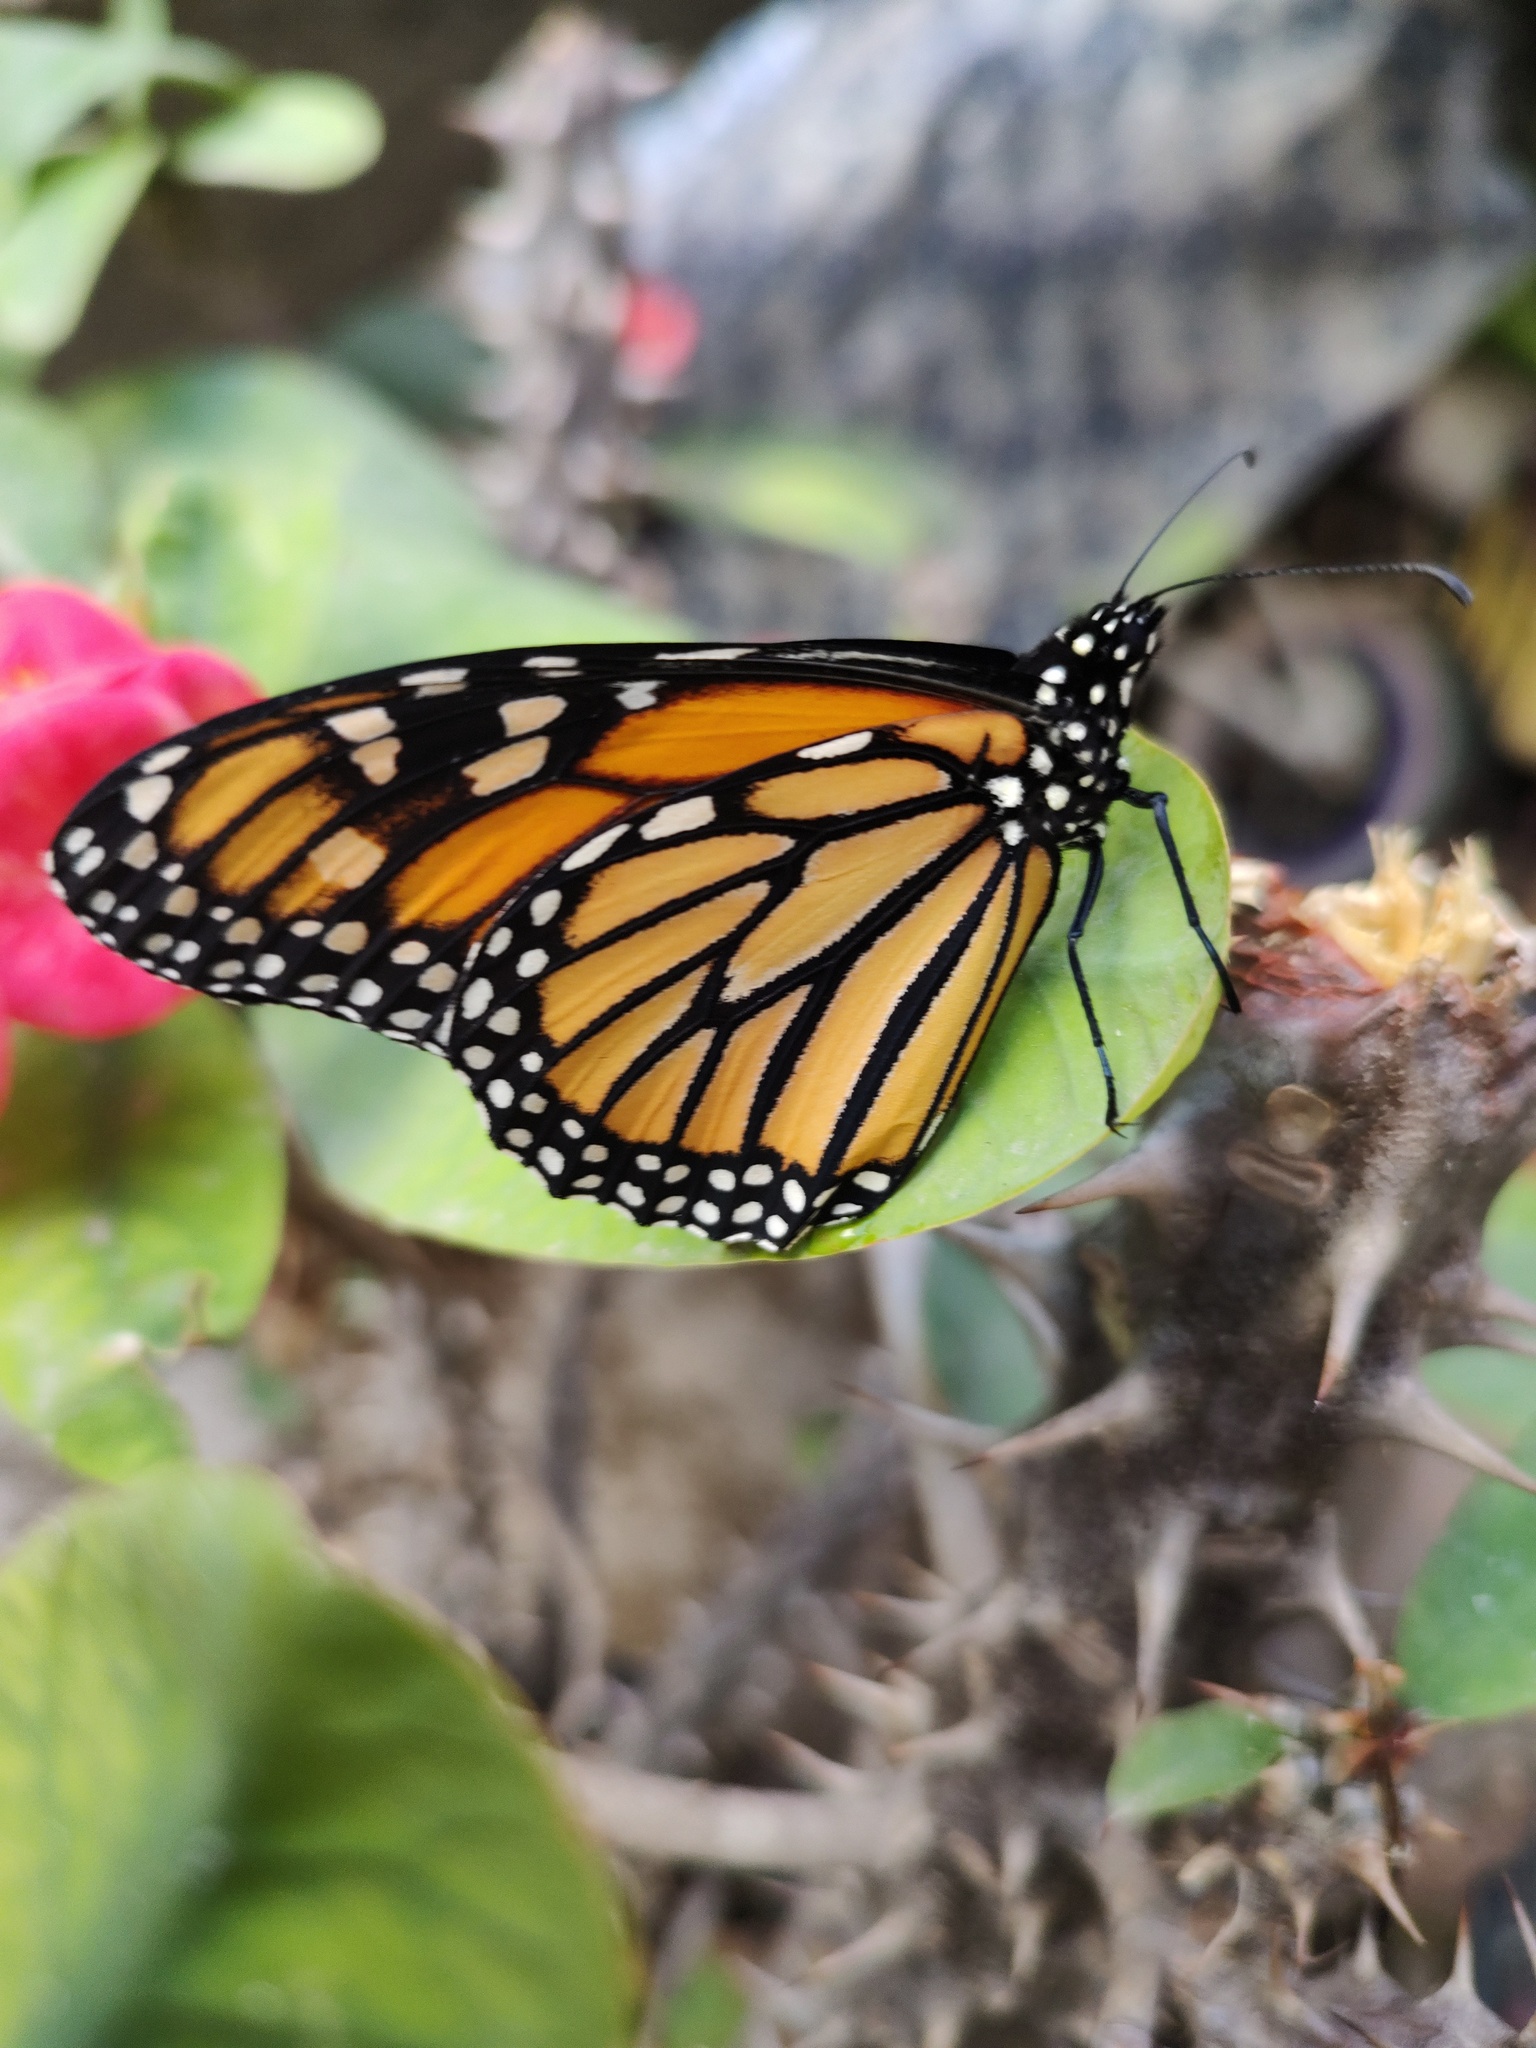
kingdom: Animalia
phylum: Arthropoda
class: Insecta
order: Lepidoptera
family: Nymphalidae
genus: Danaus
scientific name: Danaus plexippus
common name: Monarch
